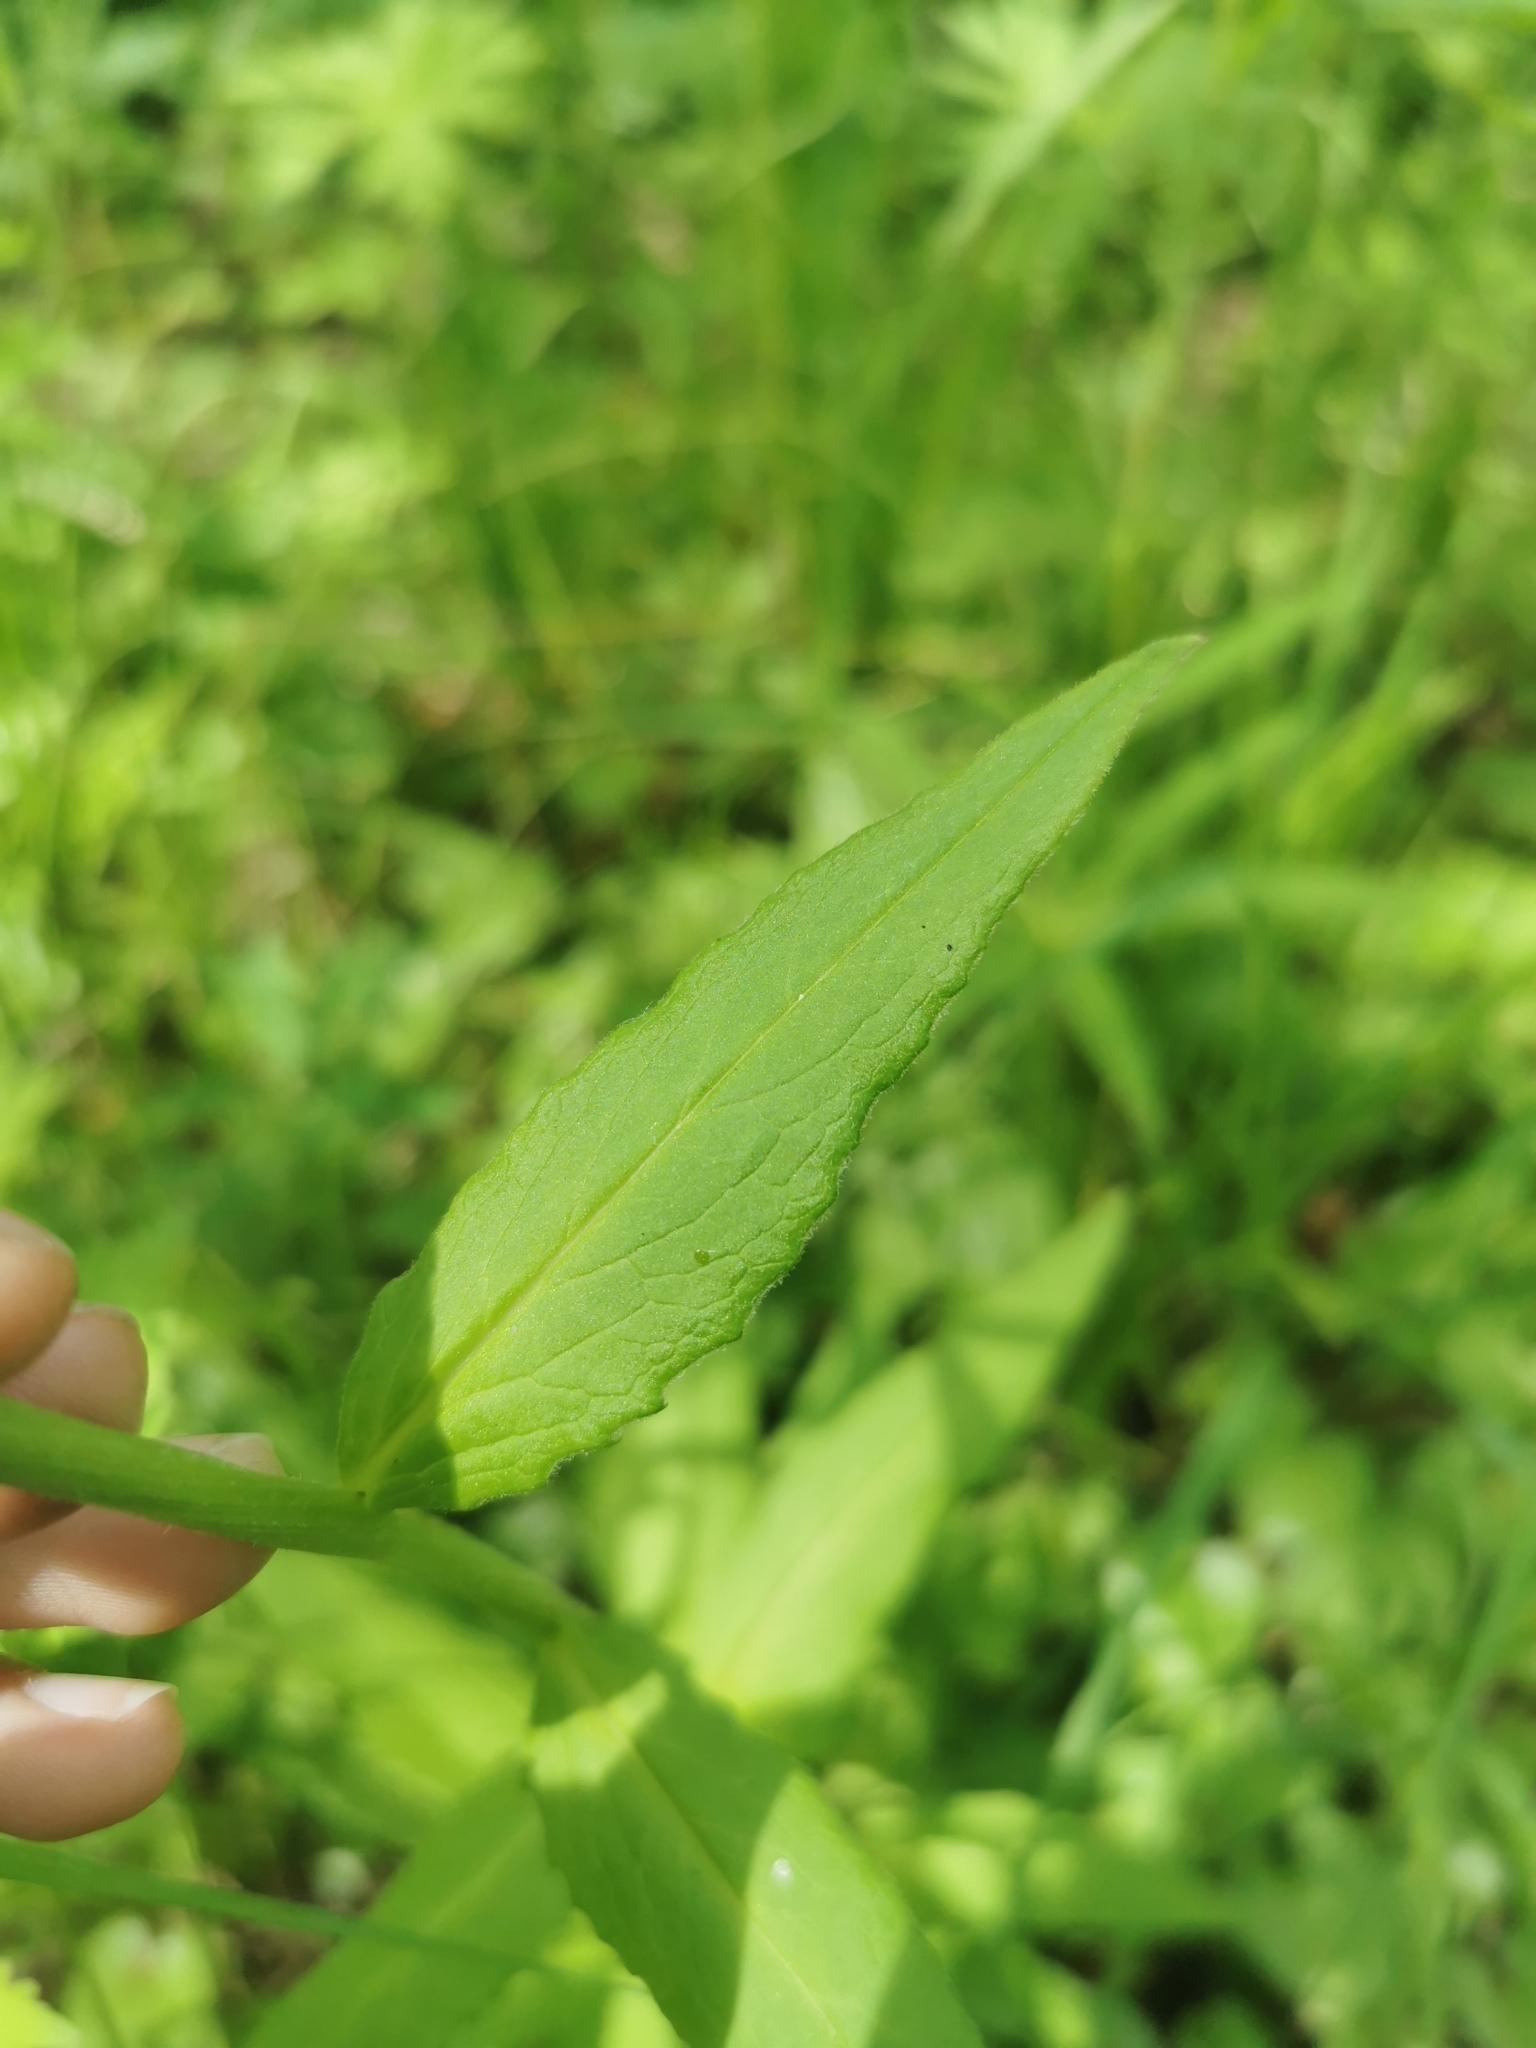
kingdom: Plantae
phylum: Tracheophyta
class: Magnoliopsida
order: Asterales
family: Asteraceae
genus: Saussurea
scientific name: Saussurea pseudotilesii
